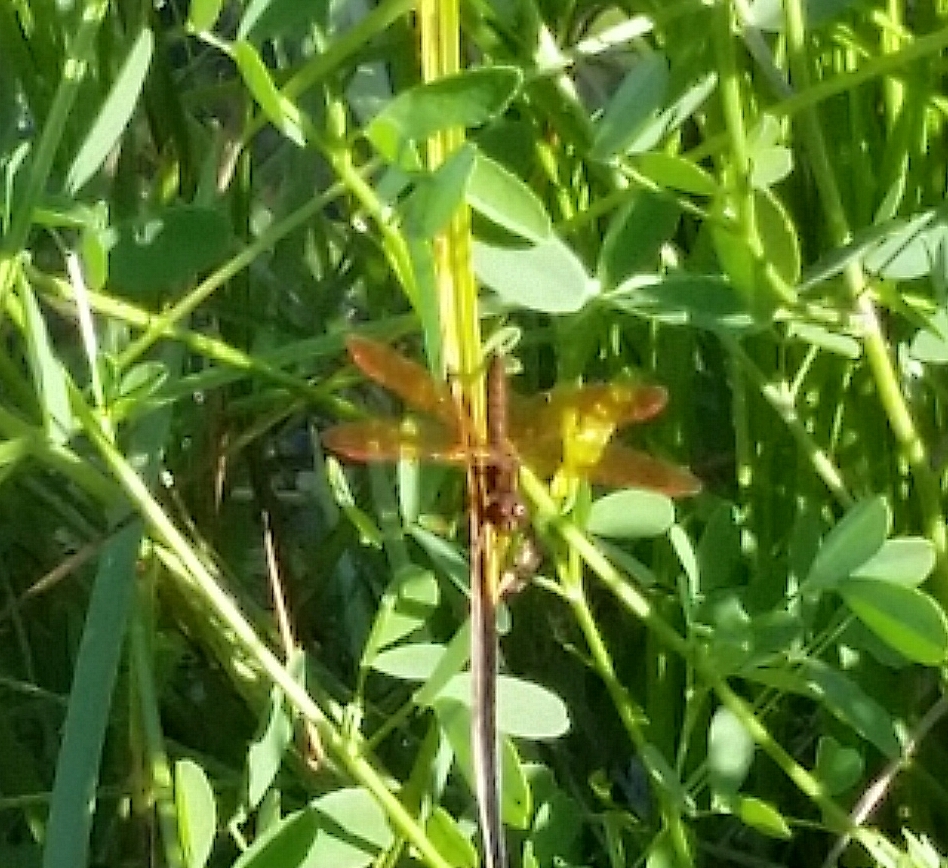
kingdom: Animalia
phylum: Arthropoda
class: Insecta
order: Odonata
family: Libellulidae
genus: Perithemis
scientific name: Perithemis tenera
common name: Eastern amberwing
